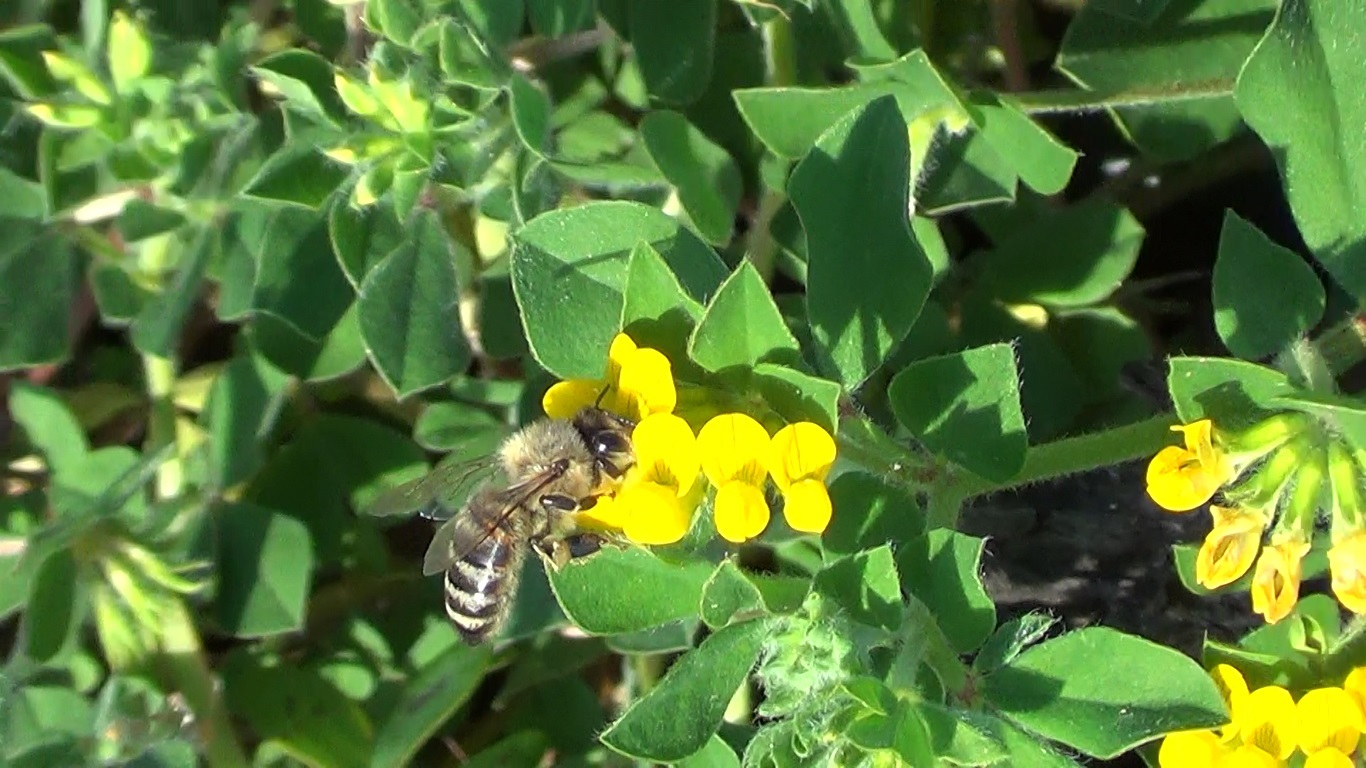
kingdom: Animalia
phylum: Arthropoda
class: Insecta
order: Hymenoptera
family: Apidae
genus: Apis
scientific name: Apis mellifera
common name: Honey bee
